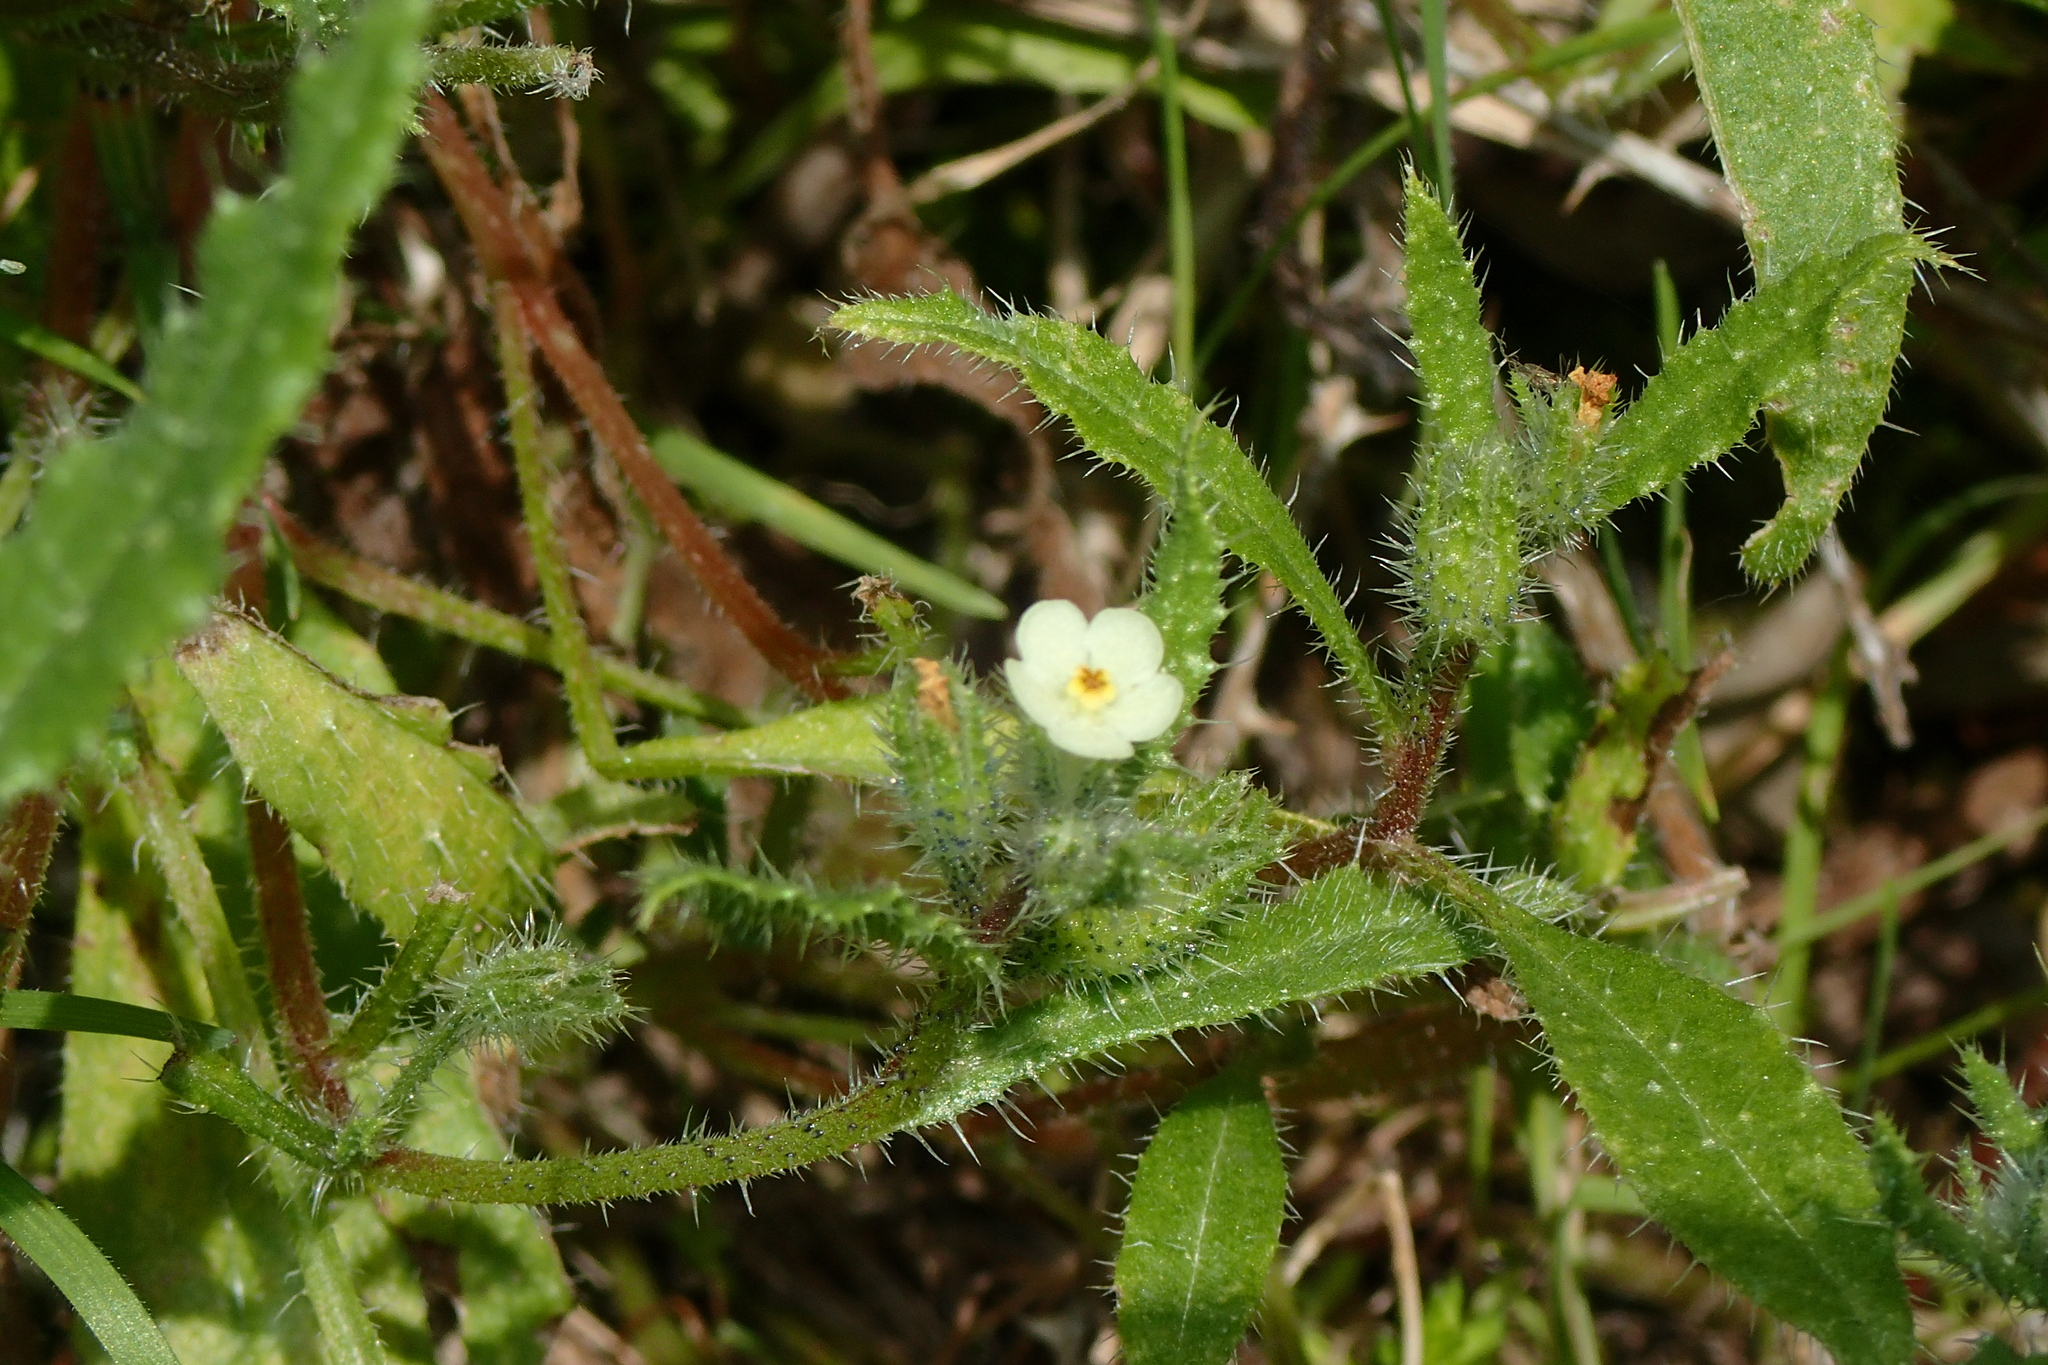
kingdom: Plantae
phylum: Tracheophyta
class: Magnoliopsida
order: Boraginales
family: Boraginaceae
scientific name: Boraginaceae
